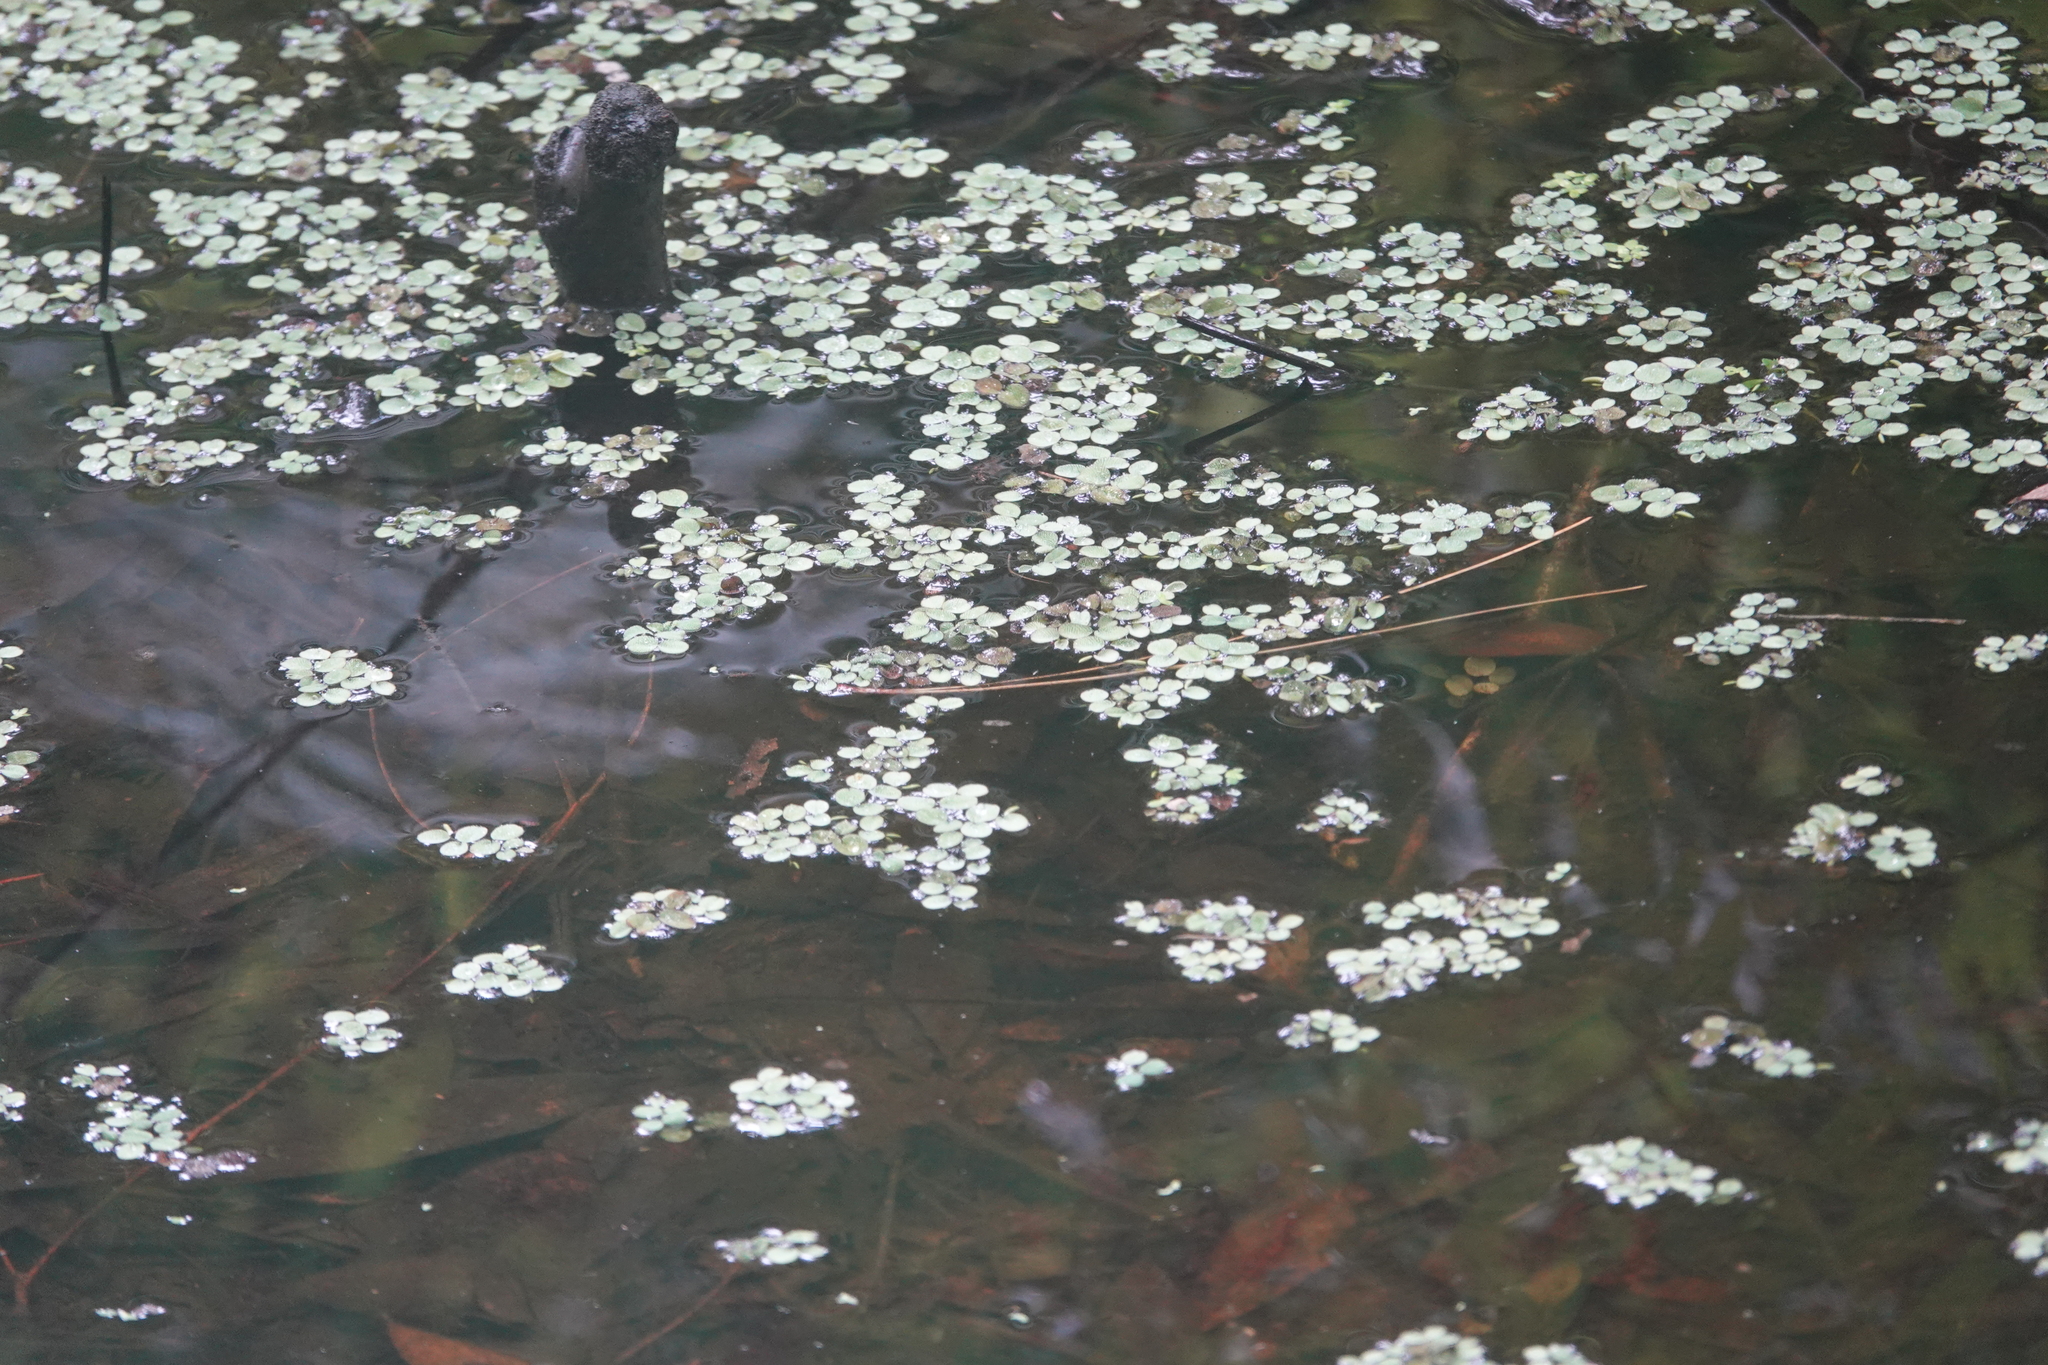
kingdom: Plantae
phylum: Tracheophyta
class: Polypodiopsida
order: Salviniales
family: Salviniaceae
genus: Salvinia
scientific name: Salvinia minima
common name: Water spangles
